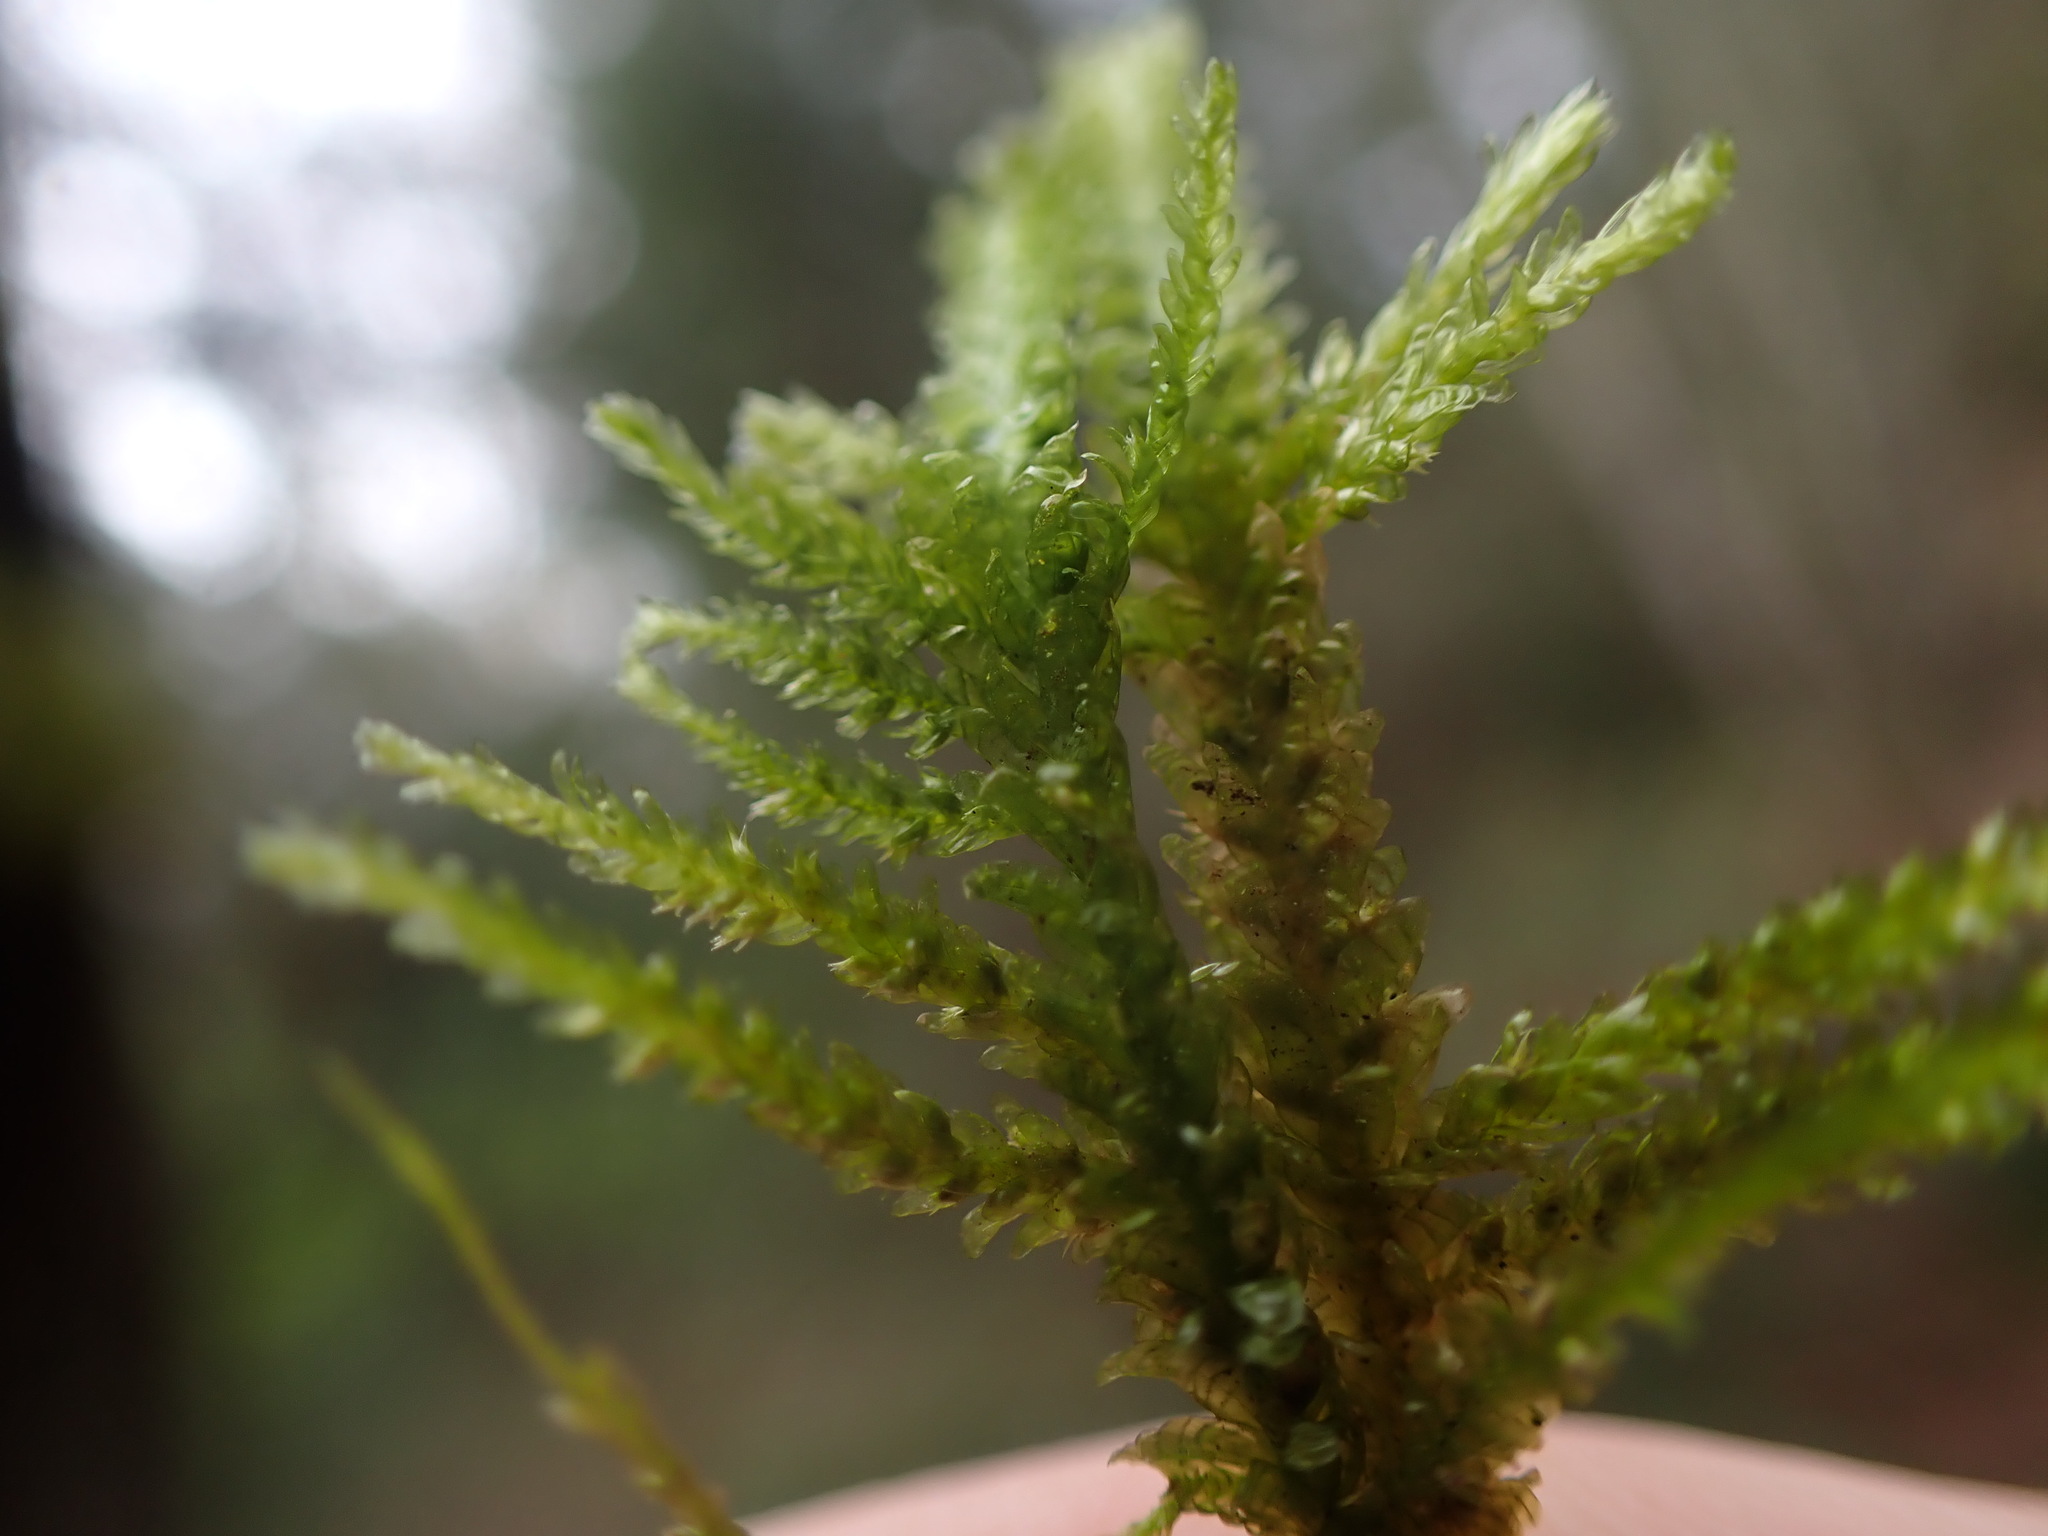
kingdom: Plantae
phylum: Bryophyta
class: Bryopsida
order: Hypnales
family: Neckeraceae
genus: Metaneckera
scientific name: Metaneckera menziesii
